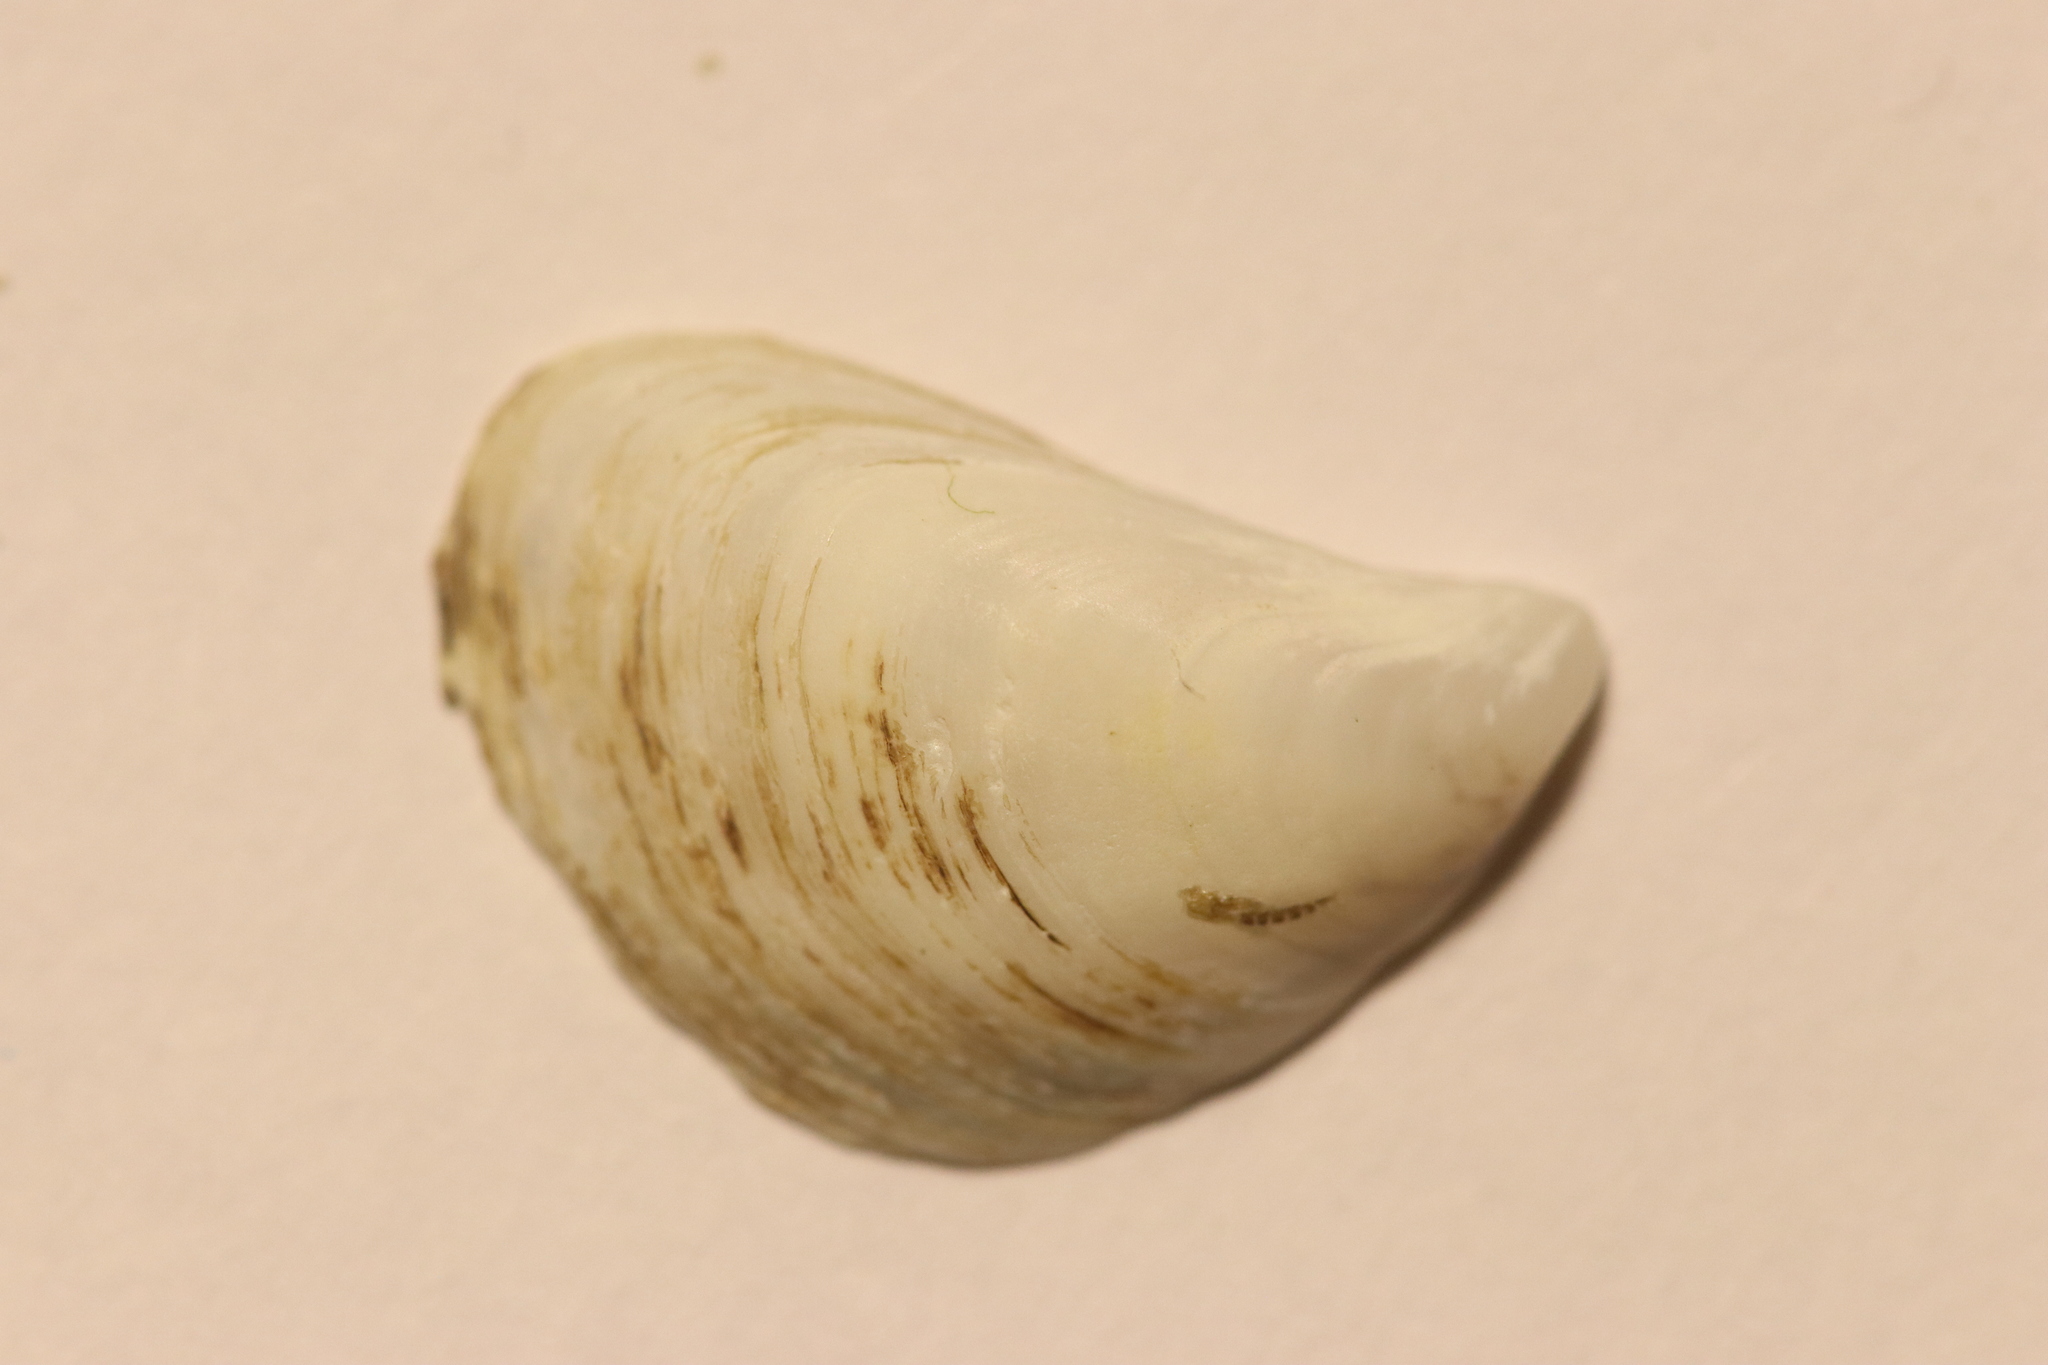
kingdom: Animalia
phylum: Mollusca
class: Bivalvia
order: Myida
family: Dreissenidae
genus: Dreissena
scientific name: Dreissena bugensis
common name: Quagga mussel
